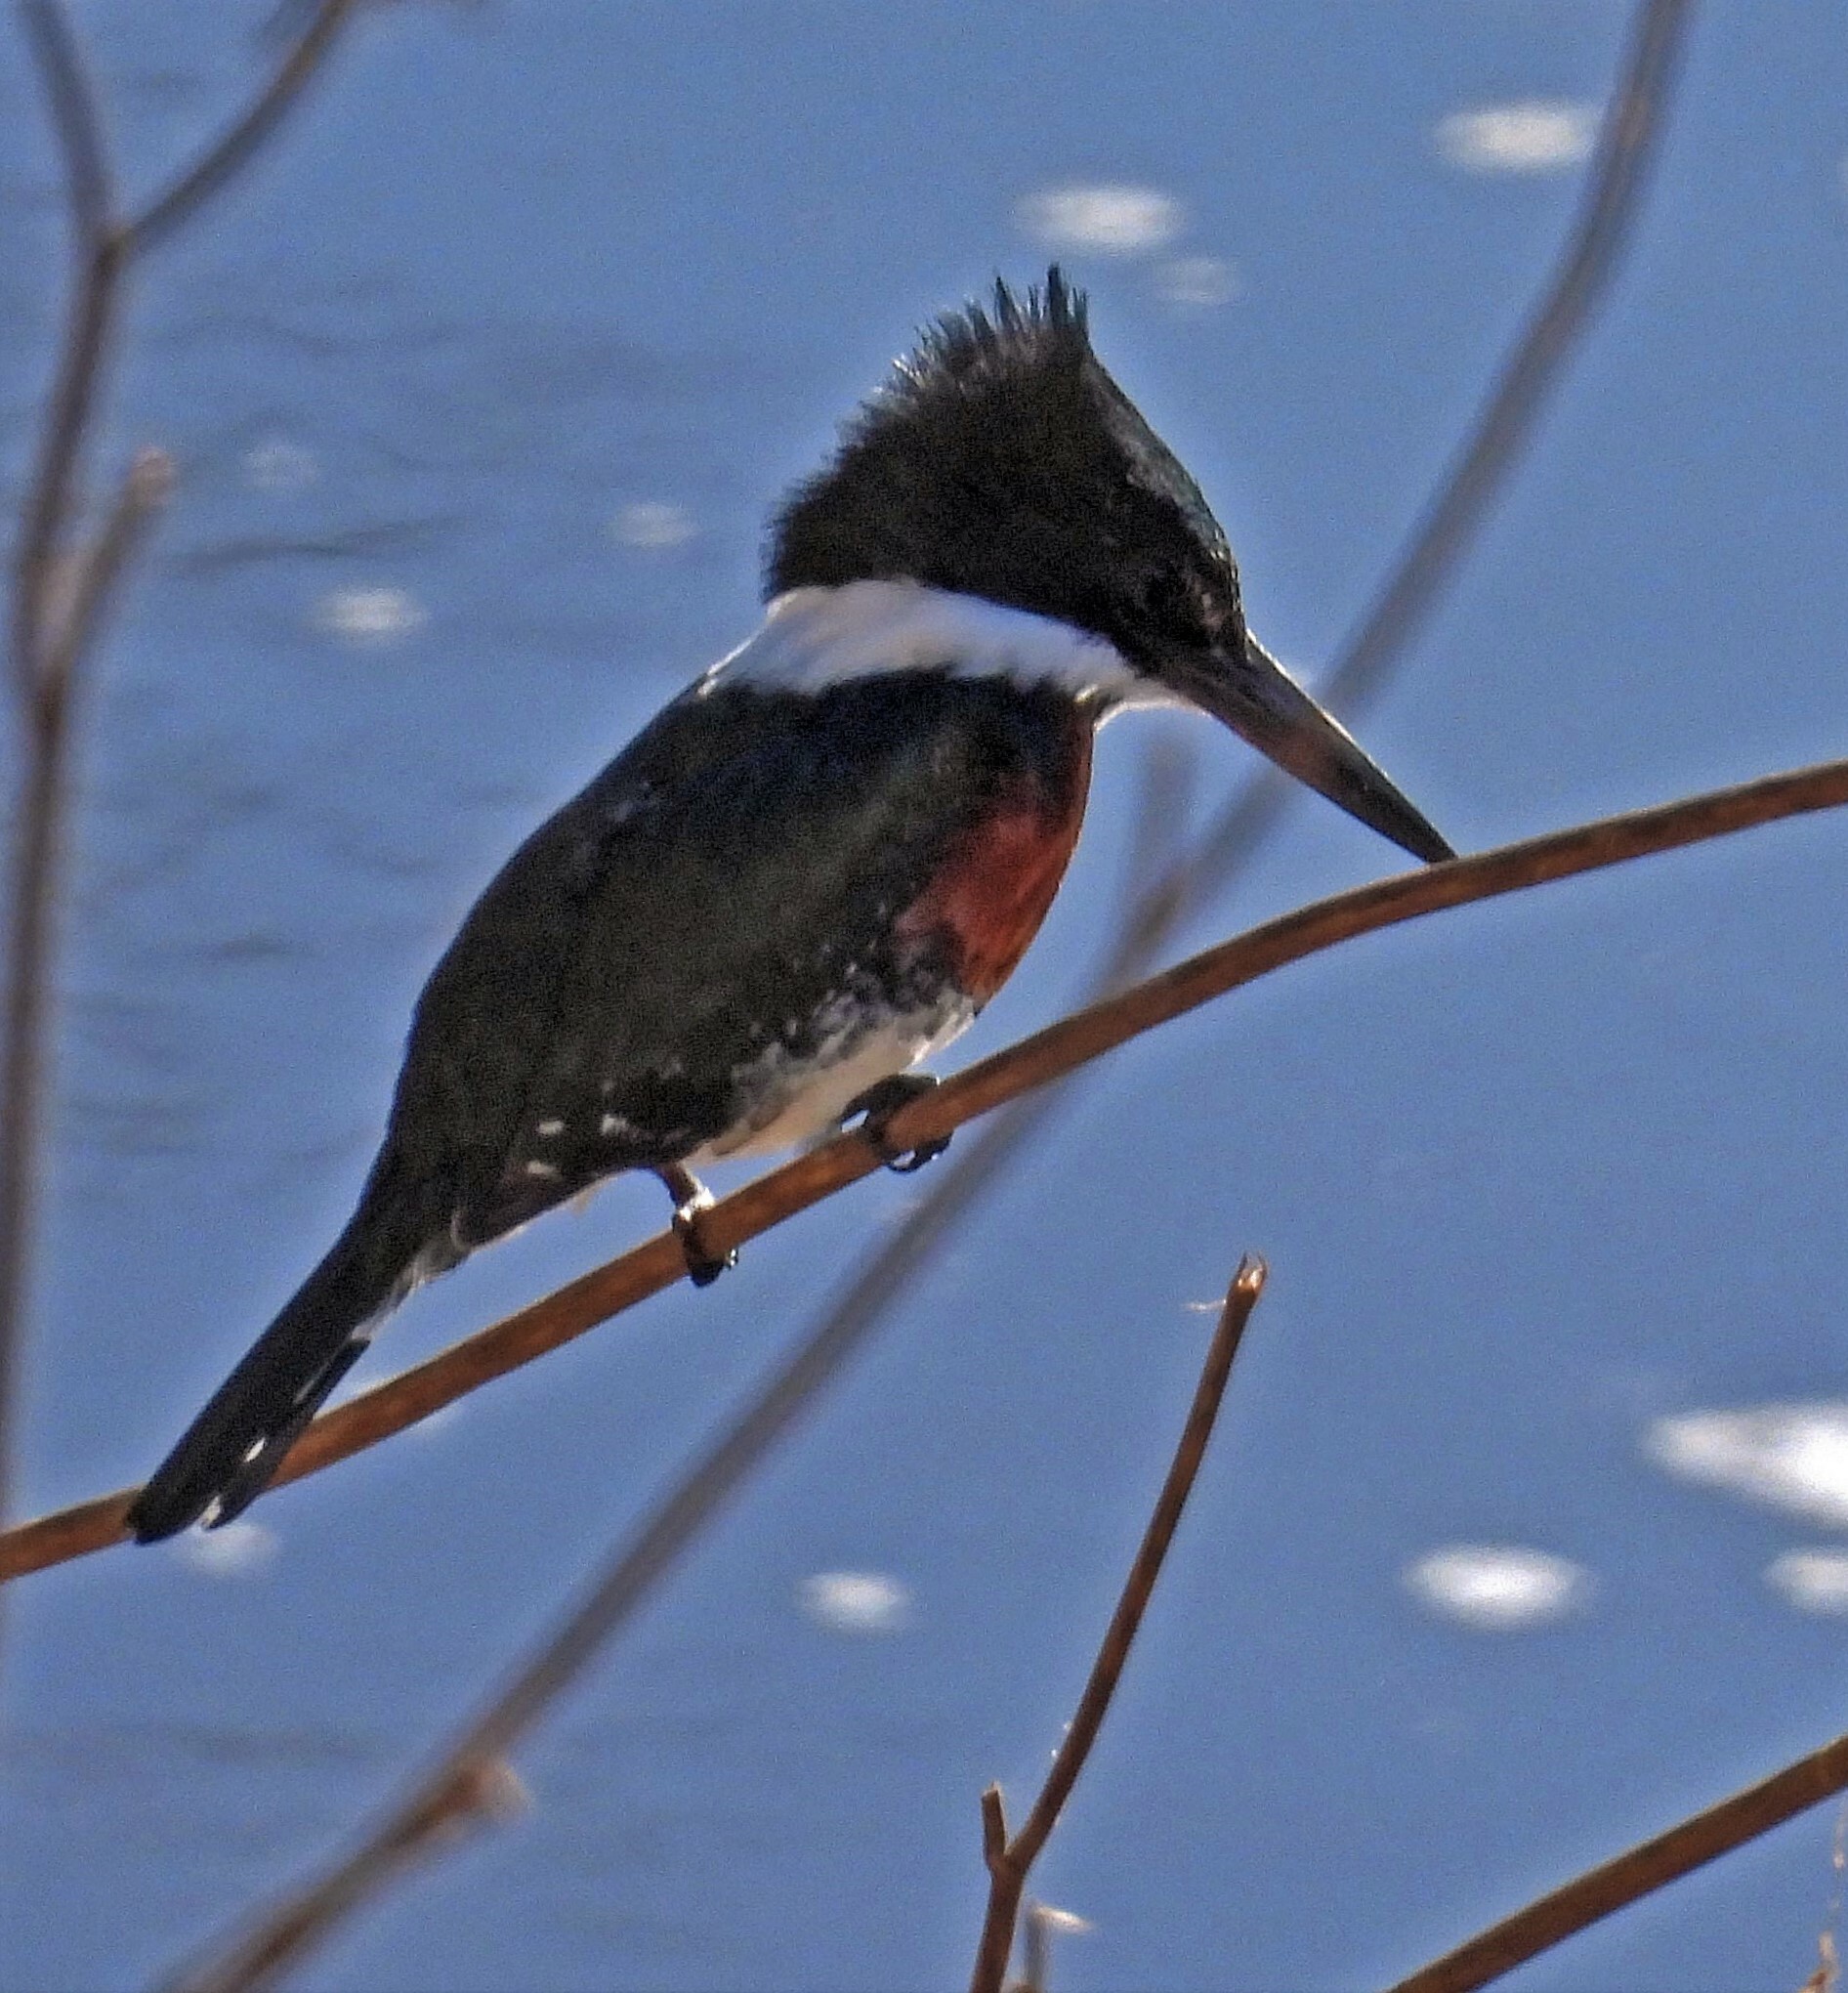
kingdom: Animalia
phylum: Chordata
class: Aves
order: Coraciiformes
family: Alcedinidae
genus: Chloroceryle
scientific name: Chloroceryle americana
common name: Green kingfisher
